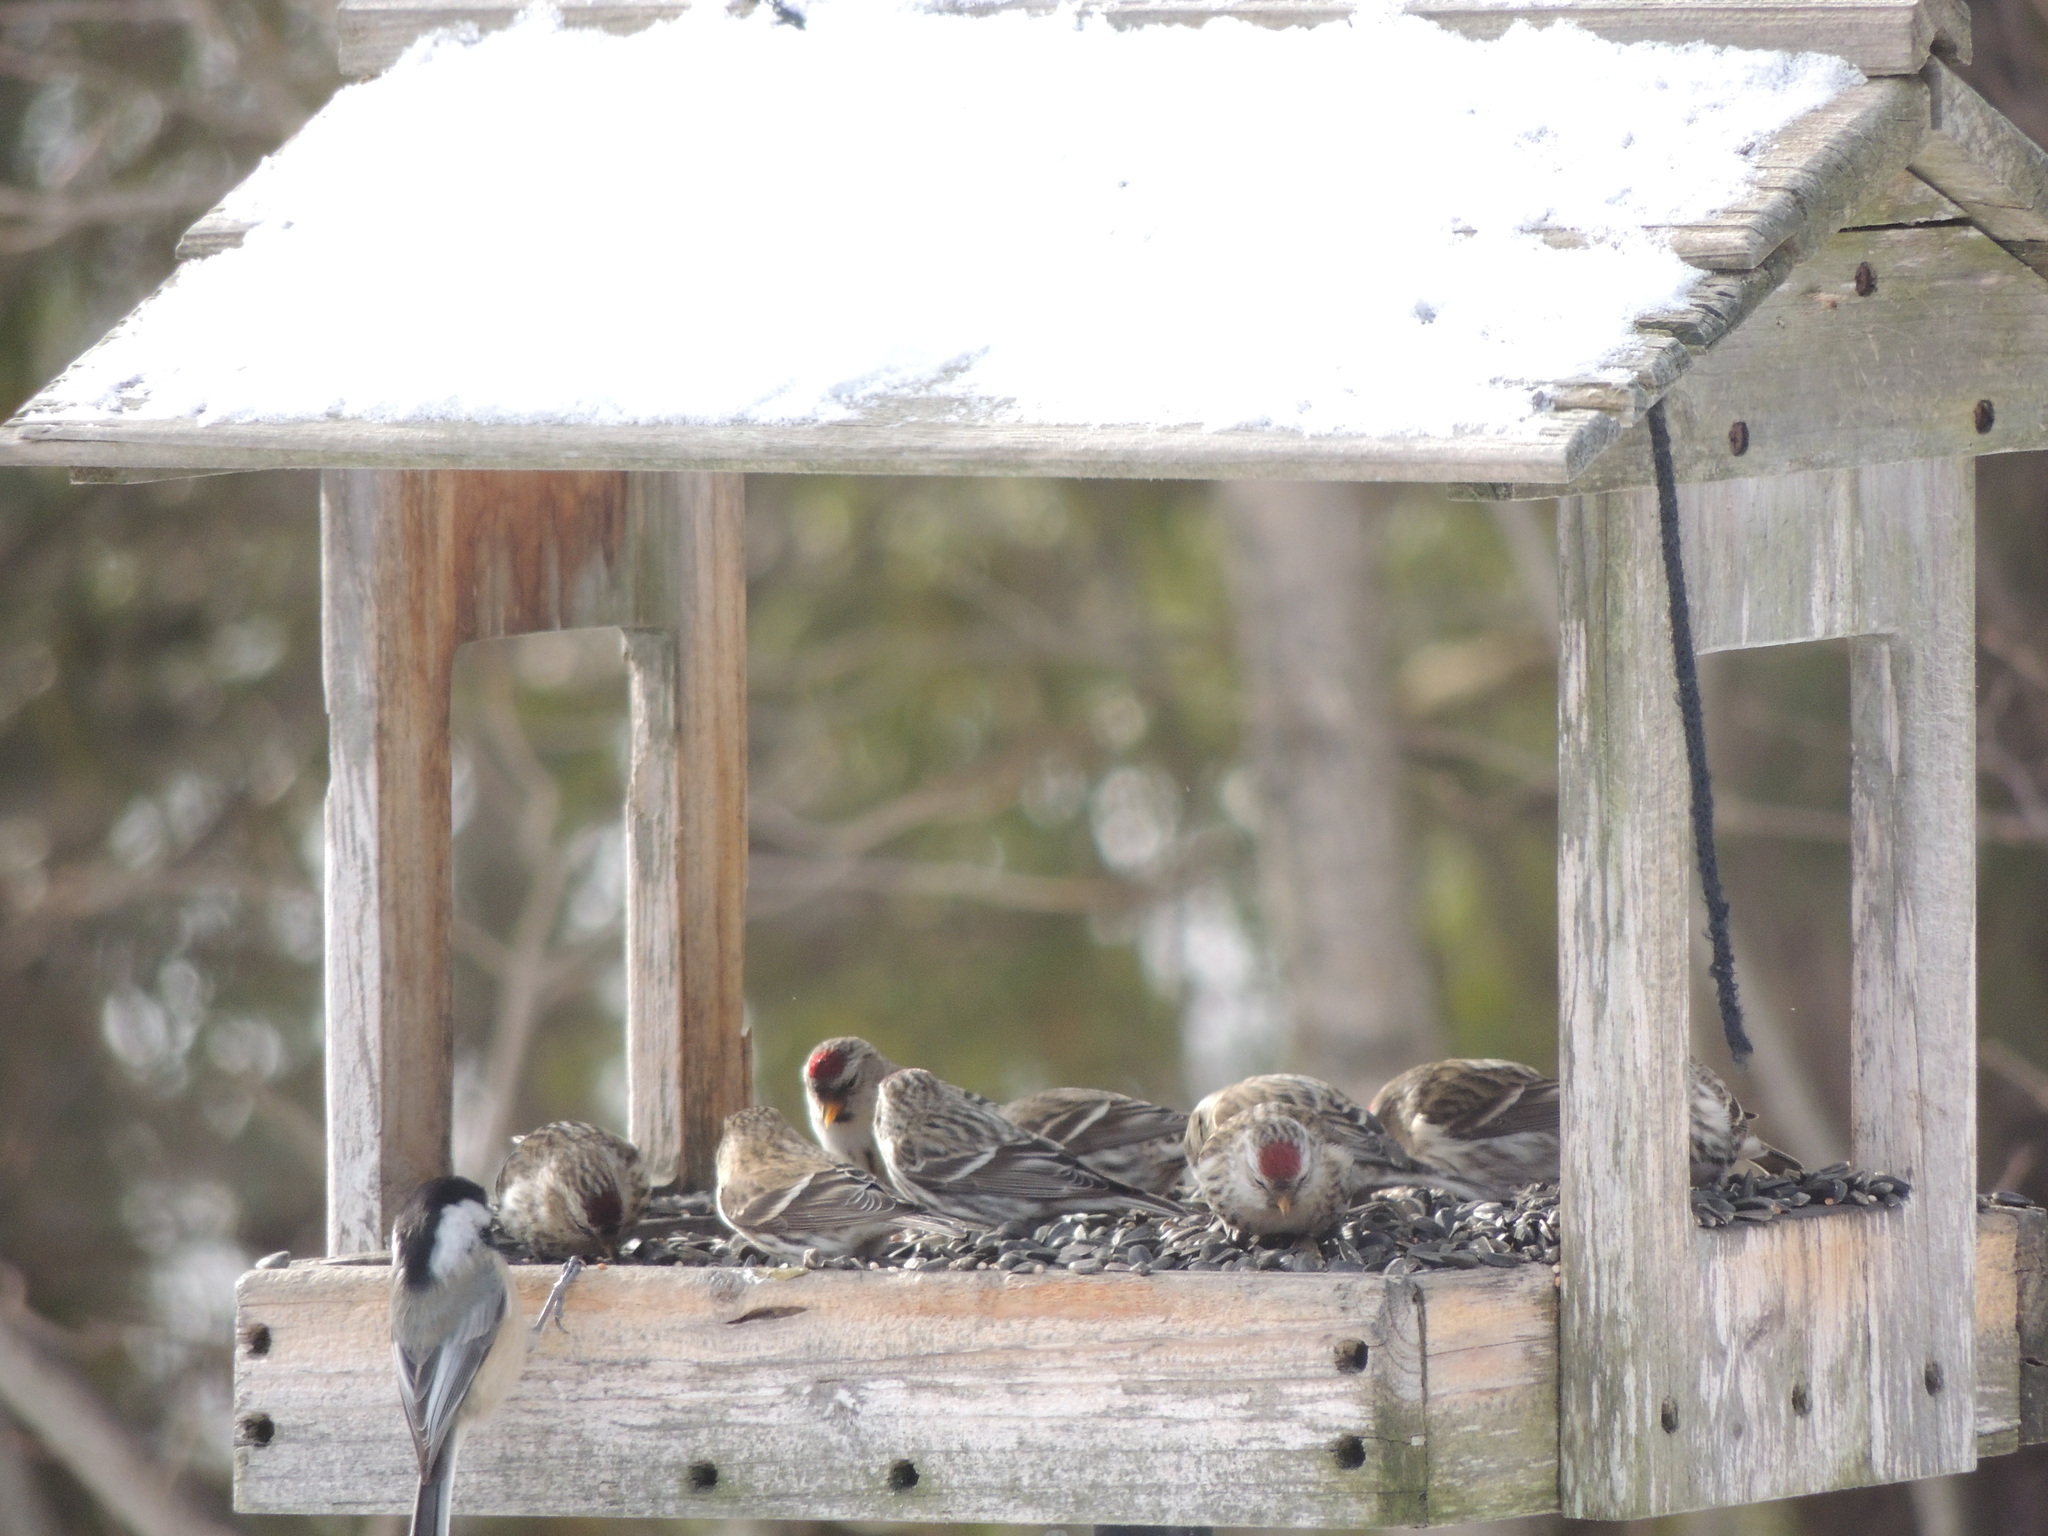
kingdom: Animalia
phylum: Chordata
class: Aves
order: Passeriformes
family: Fringillidae
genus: Acanthis
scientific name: Acanthis flammea
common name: Common redpoll
